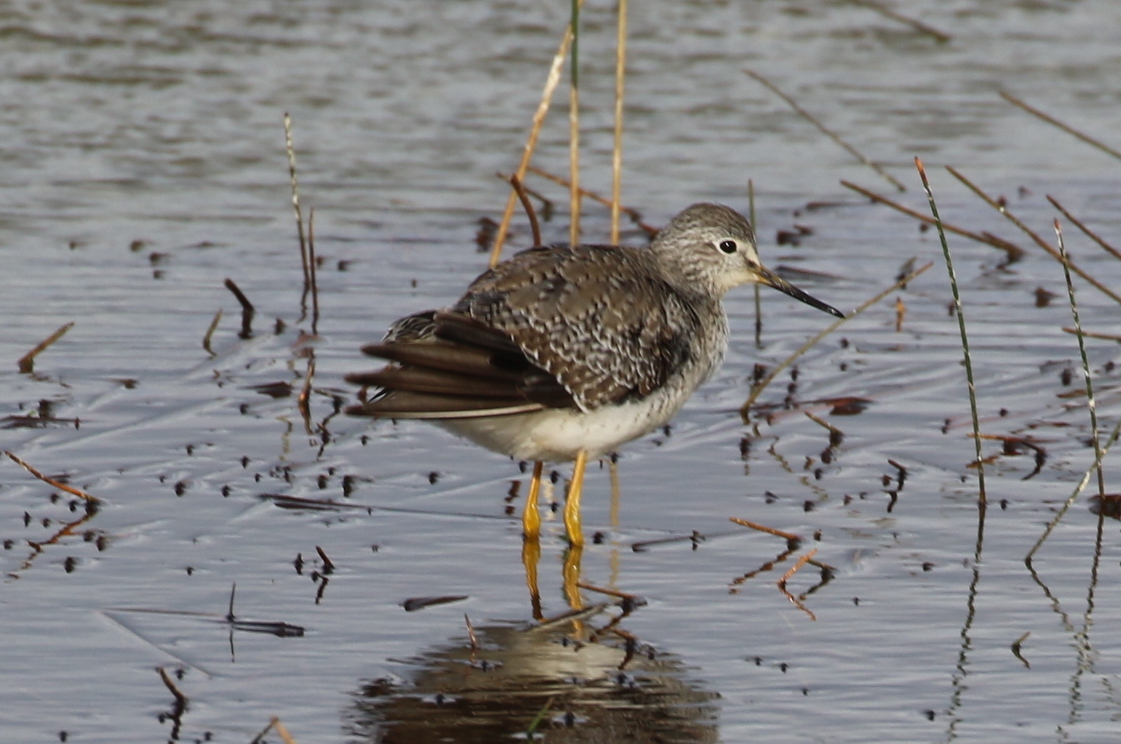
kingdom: Animalia
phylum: Chordata
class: Aves
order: Charadriiformes
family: Scolopacidae
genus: Tringa
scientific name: Tringa flavipes
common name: Lesser yellowlegs
